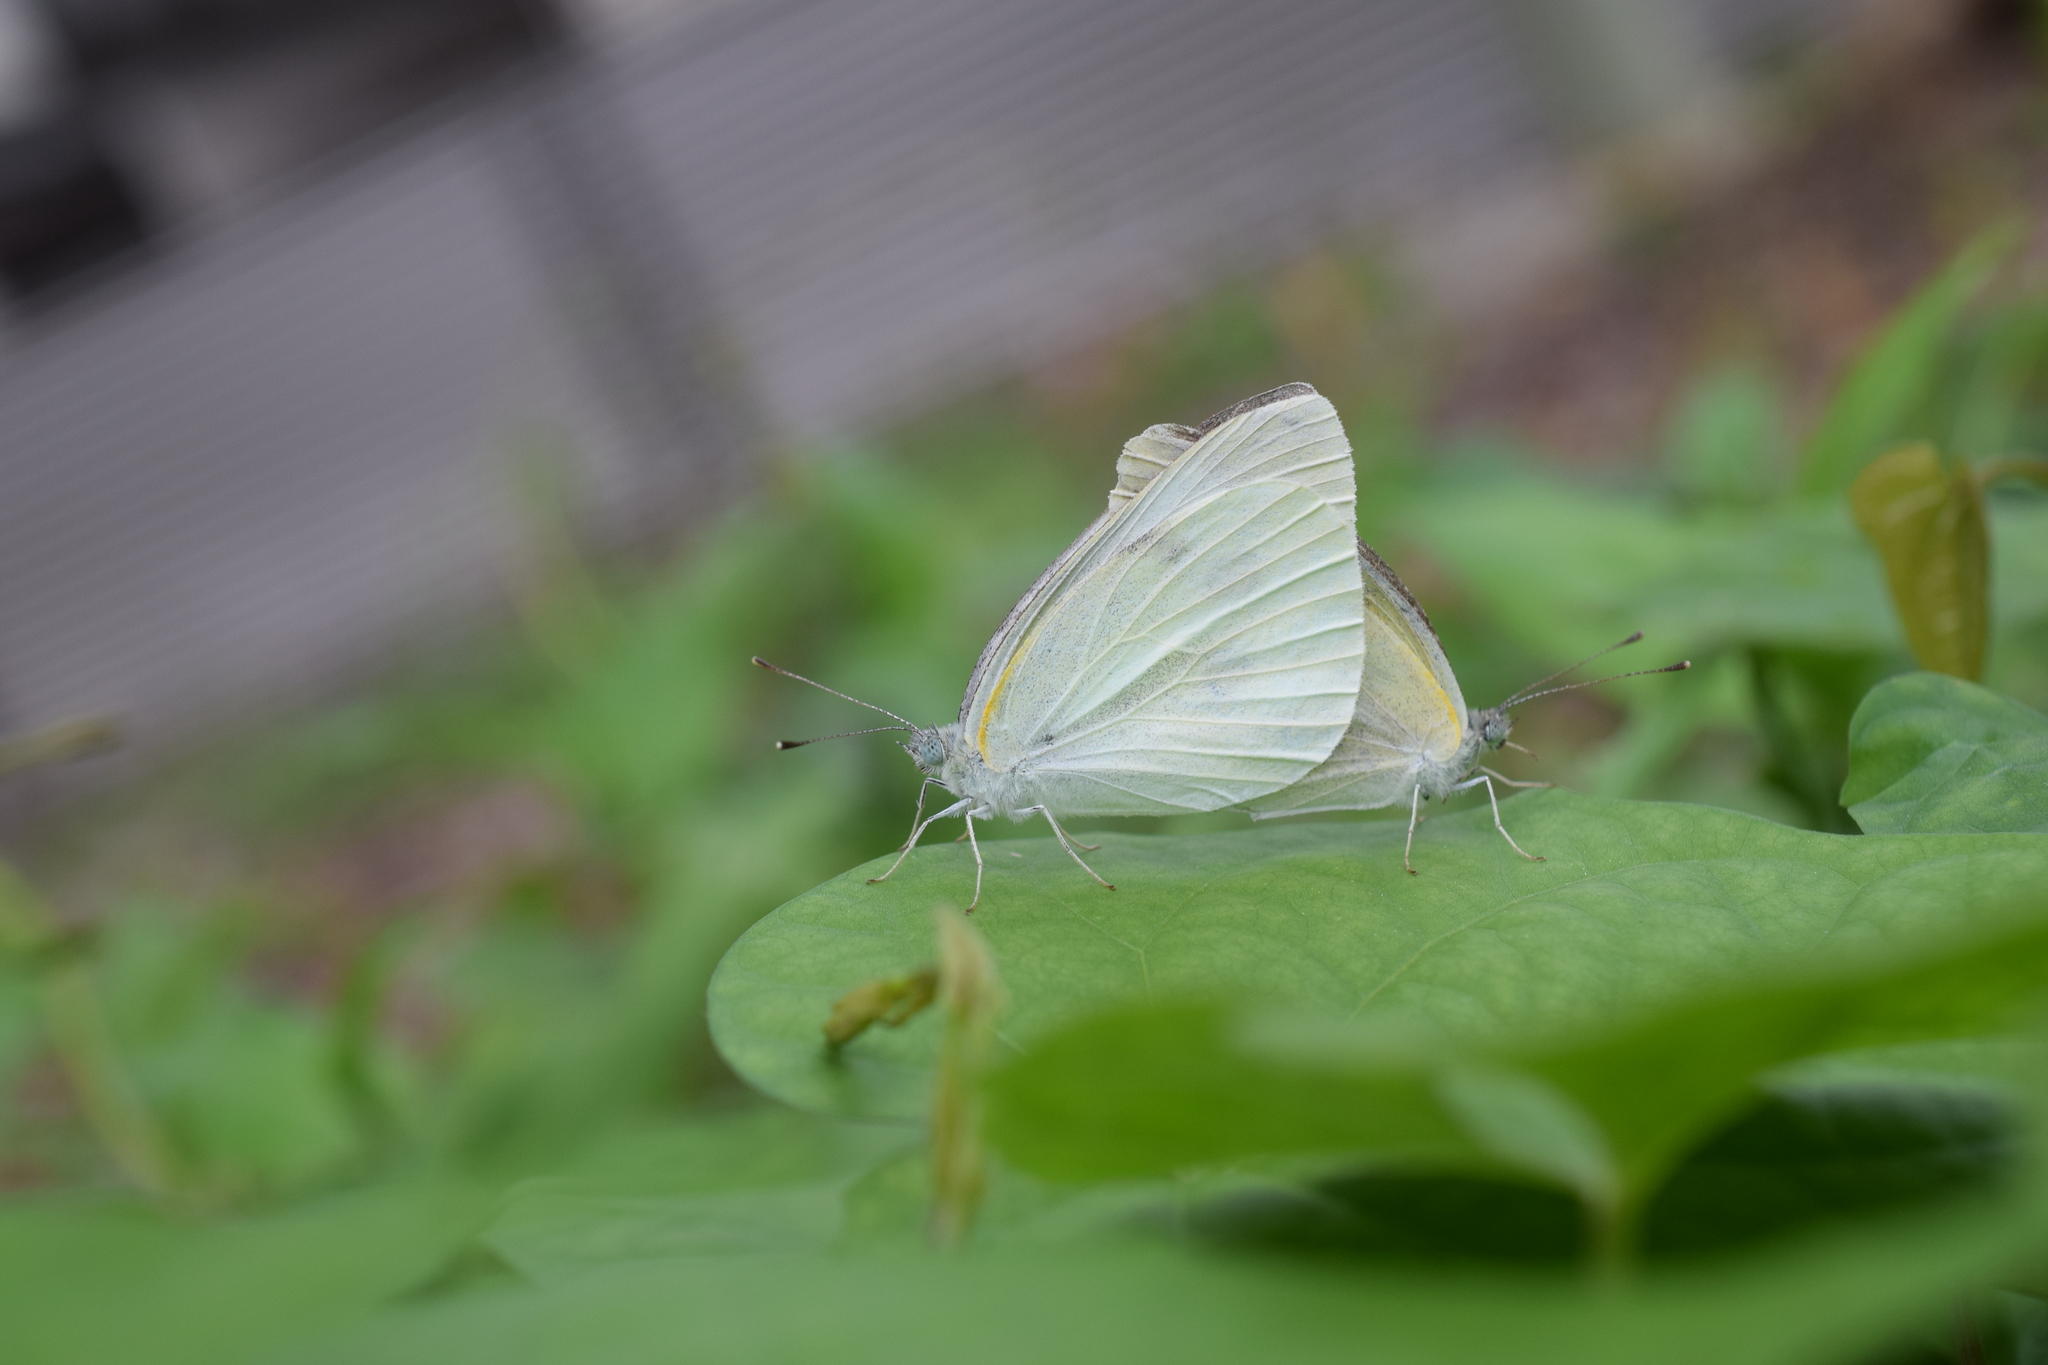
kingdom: Animalia
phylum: Arthropoda
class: Insecta
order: Lepidoptera
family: Pieridae
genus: Pieris
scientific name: Pieris rapae
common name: Small white
